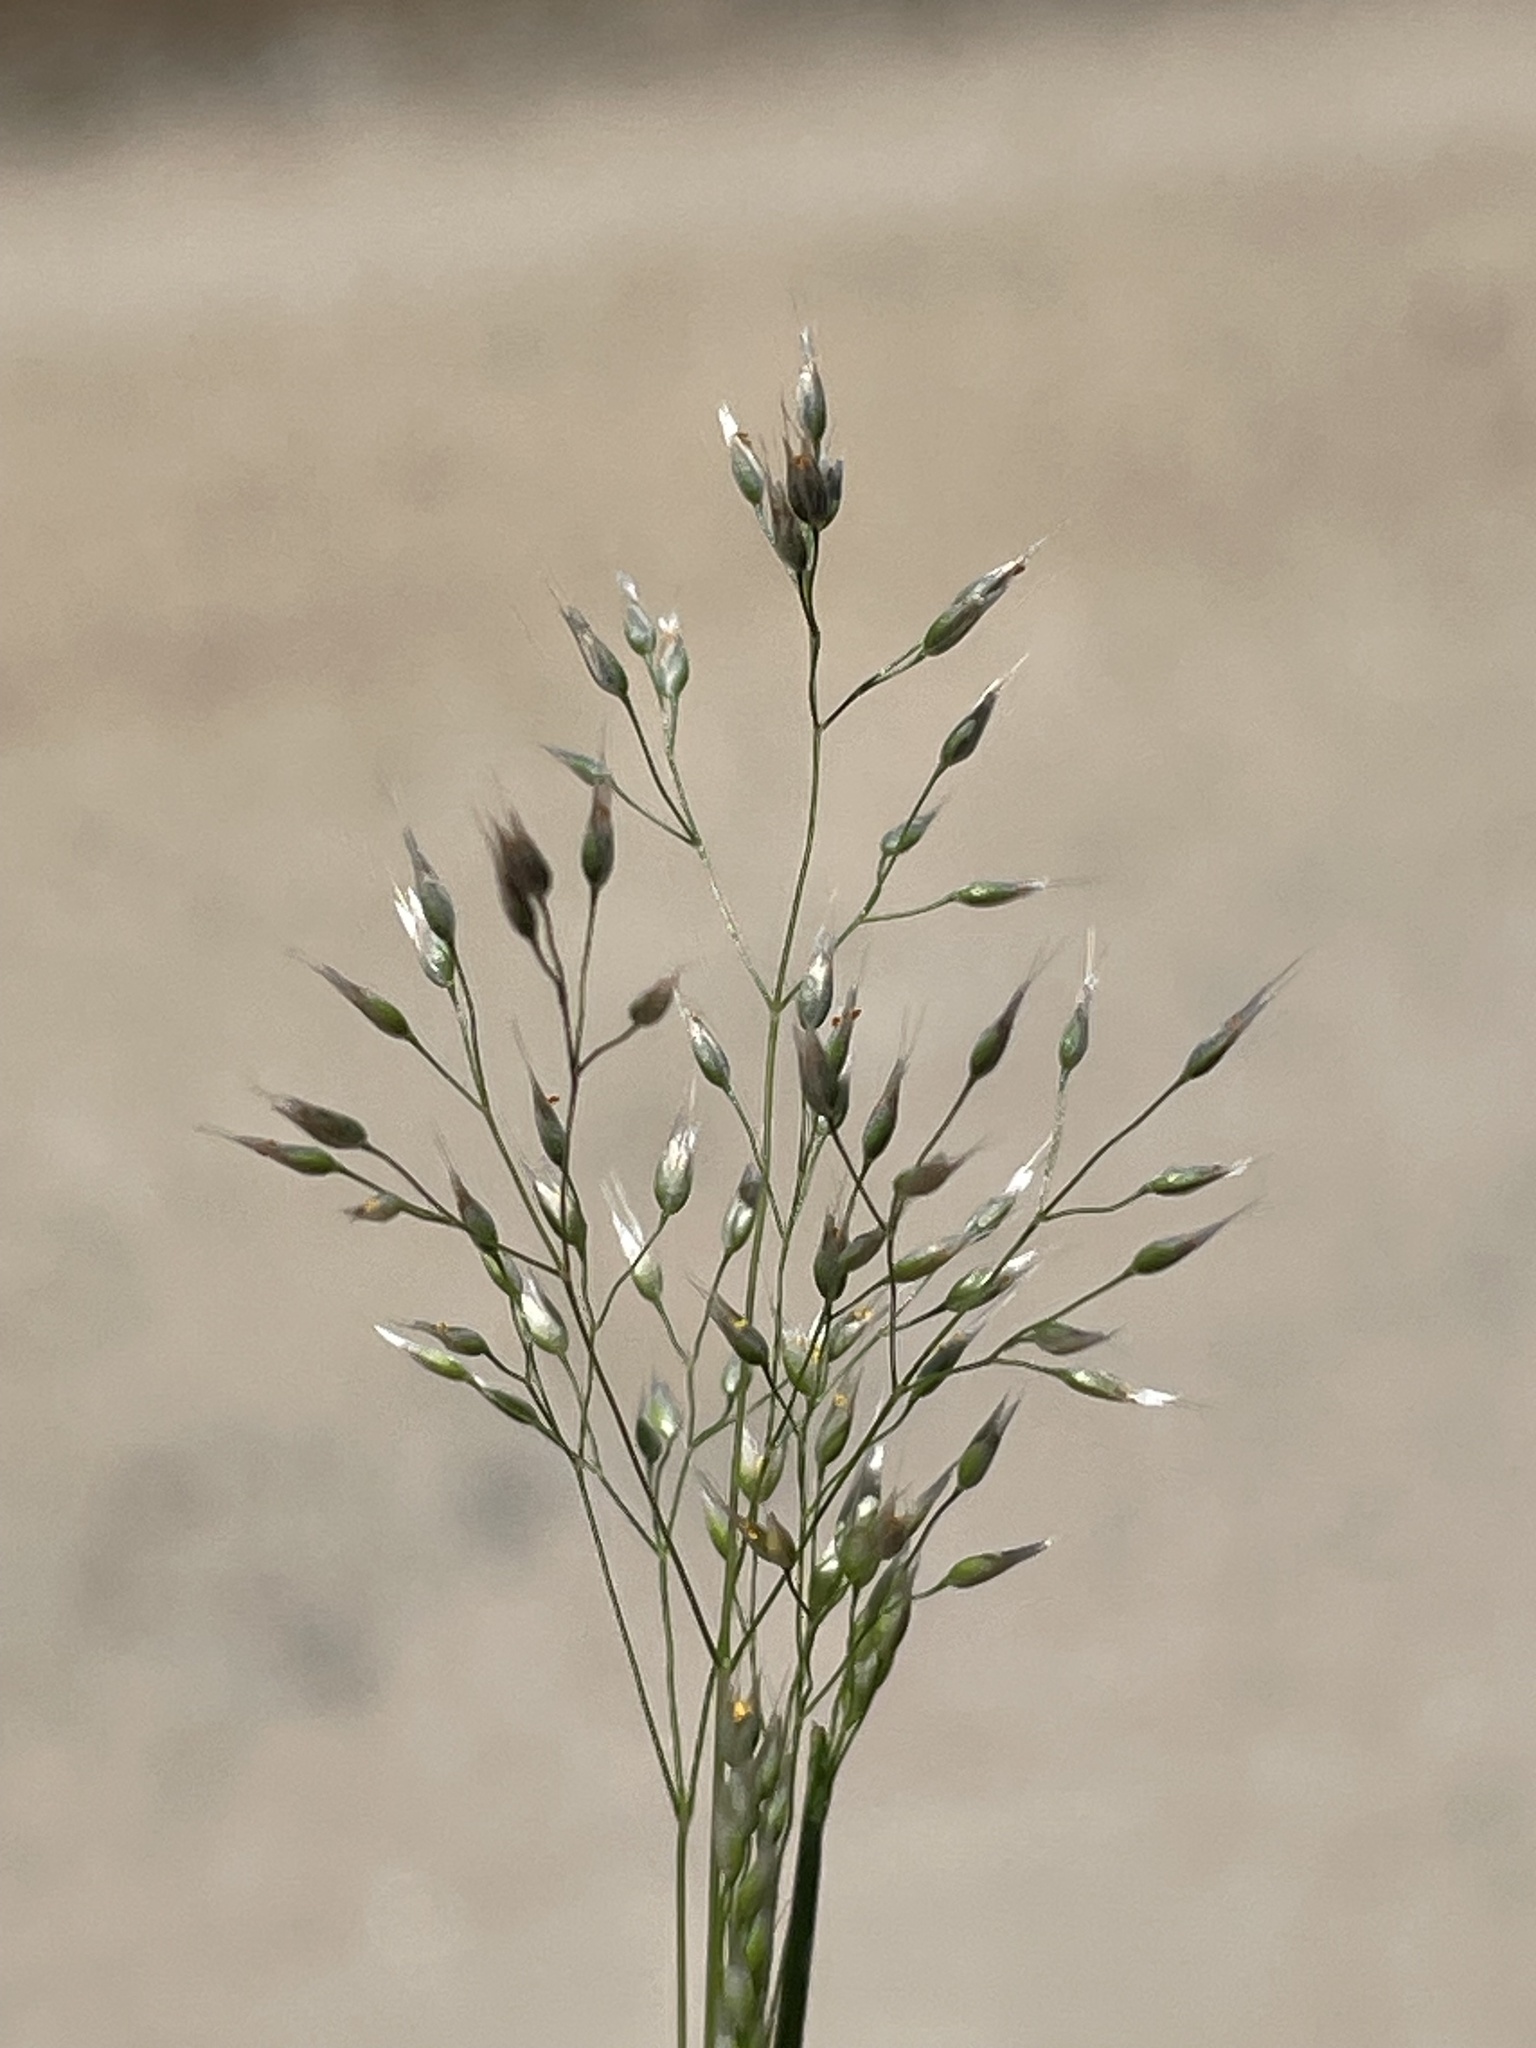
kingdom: Plantae
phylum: Tracheophyta
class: Liliopsida
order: Poales
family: Poaceae
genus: Aira
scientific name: Aira caryophyllea
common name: Silver hairgrass
